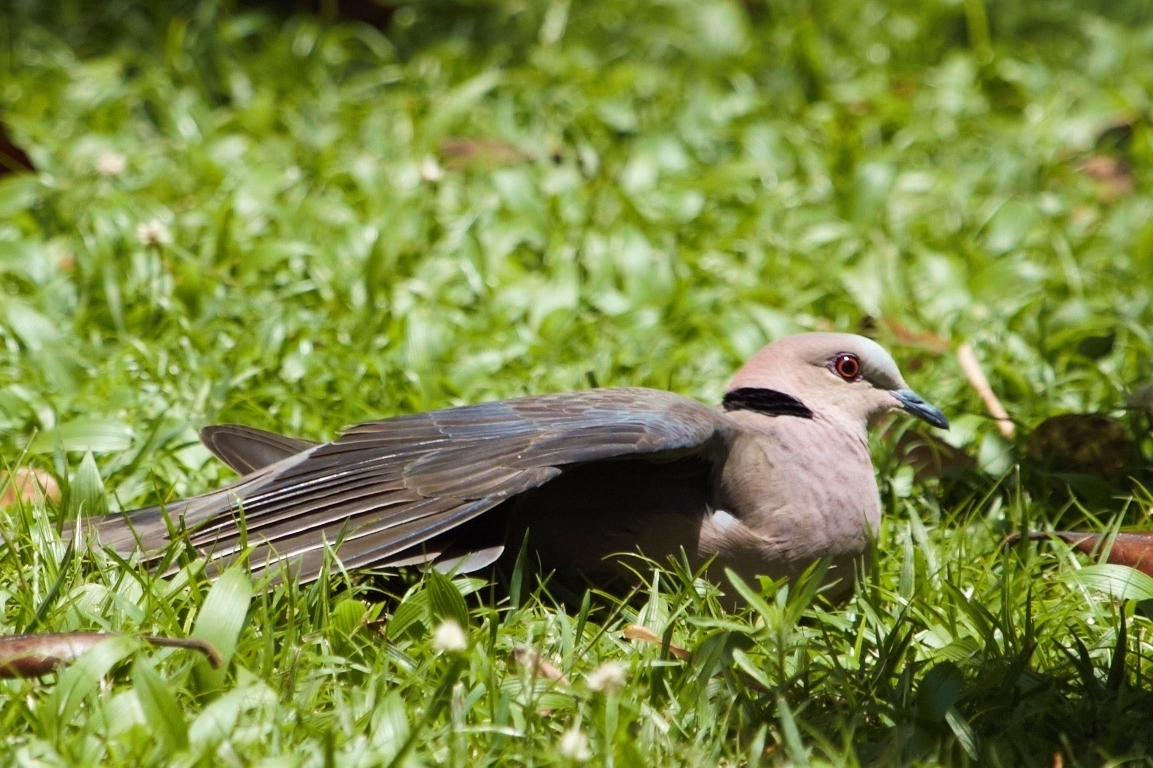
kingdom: Animalia
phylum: Chordata
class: Aves
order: Columbiformes
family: Columbidae
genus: Streptopelia
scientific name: Streptopelia semitorquata
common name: Red-eyed dove
